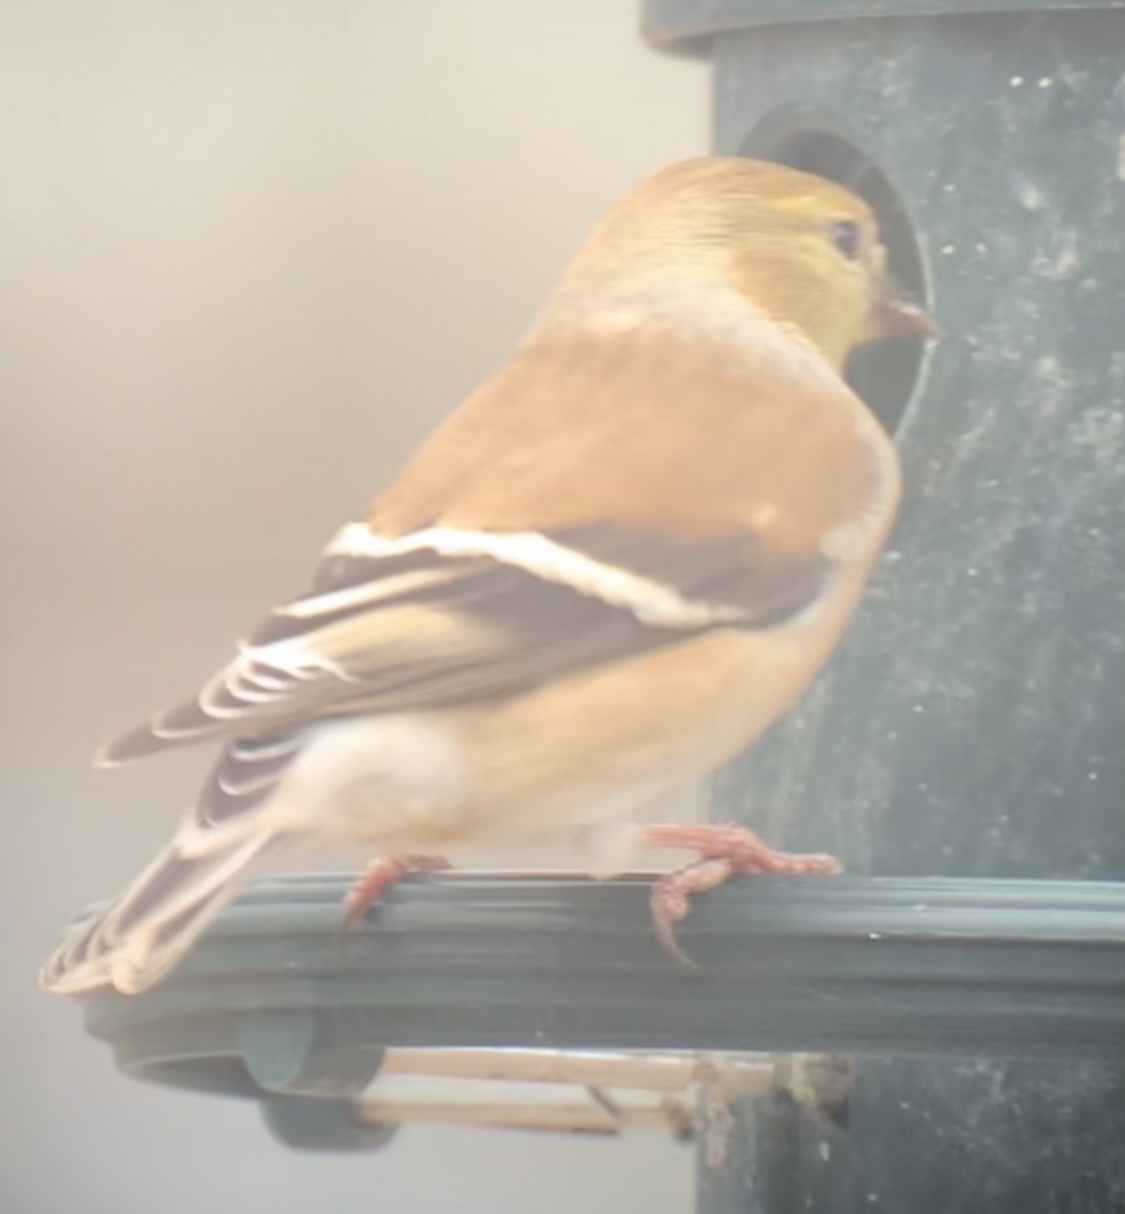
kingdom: Animalia
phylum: Chordata
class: Aves
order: Passeriformes
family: Fringillidae
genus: Spinus
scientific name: Spinus tristis
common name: American goldfinch
